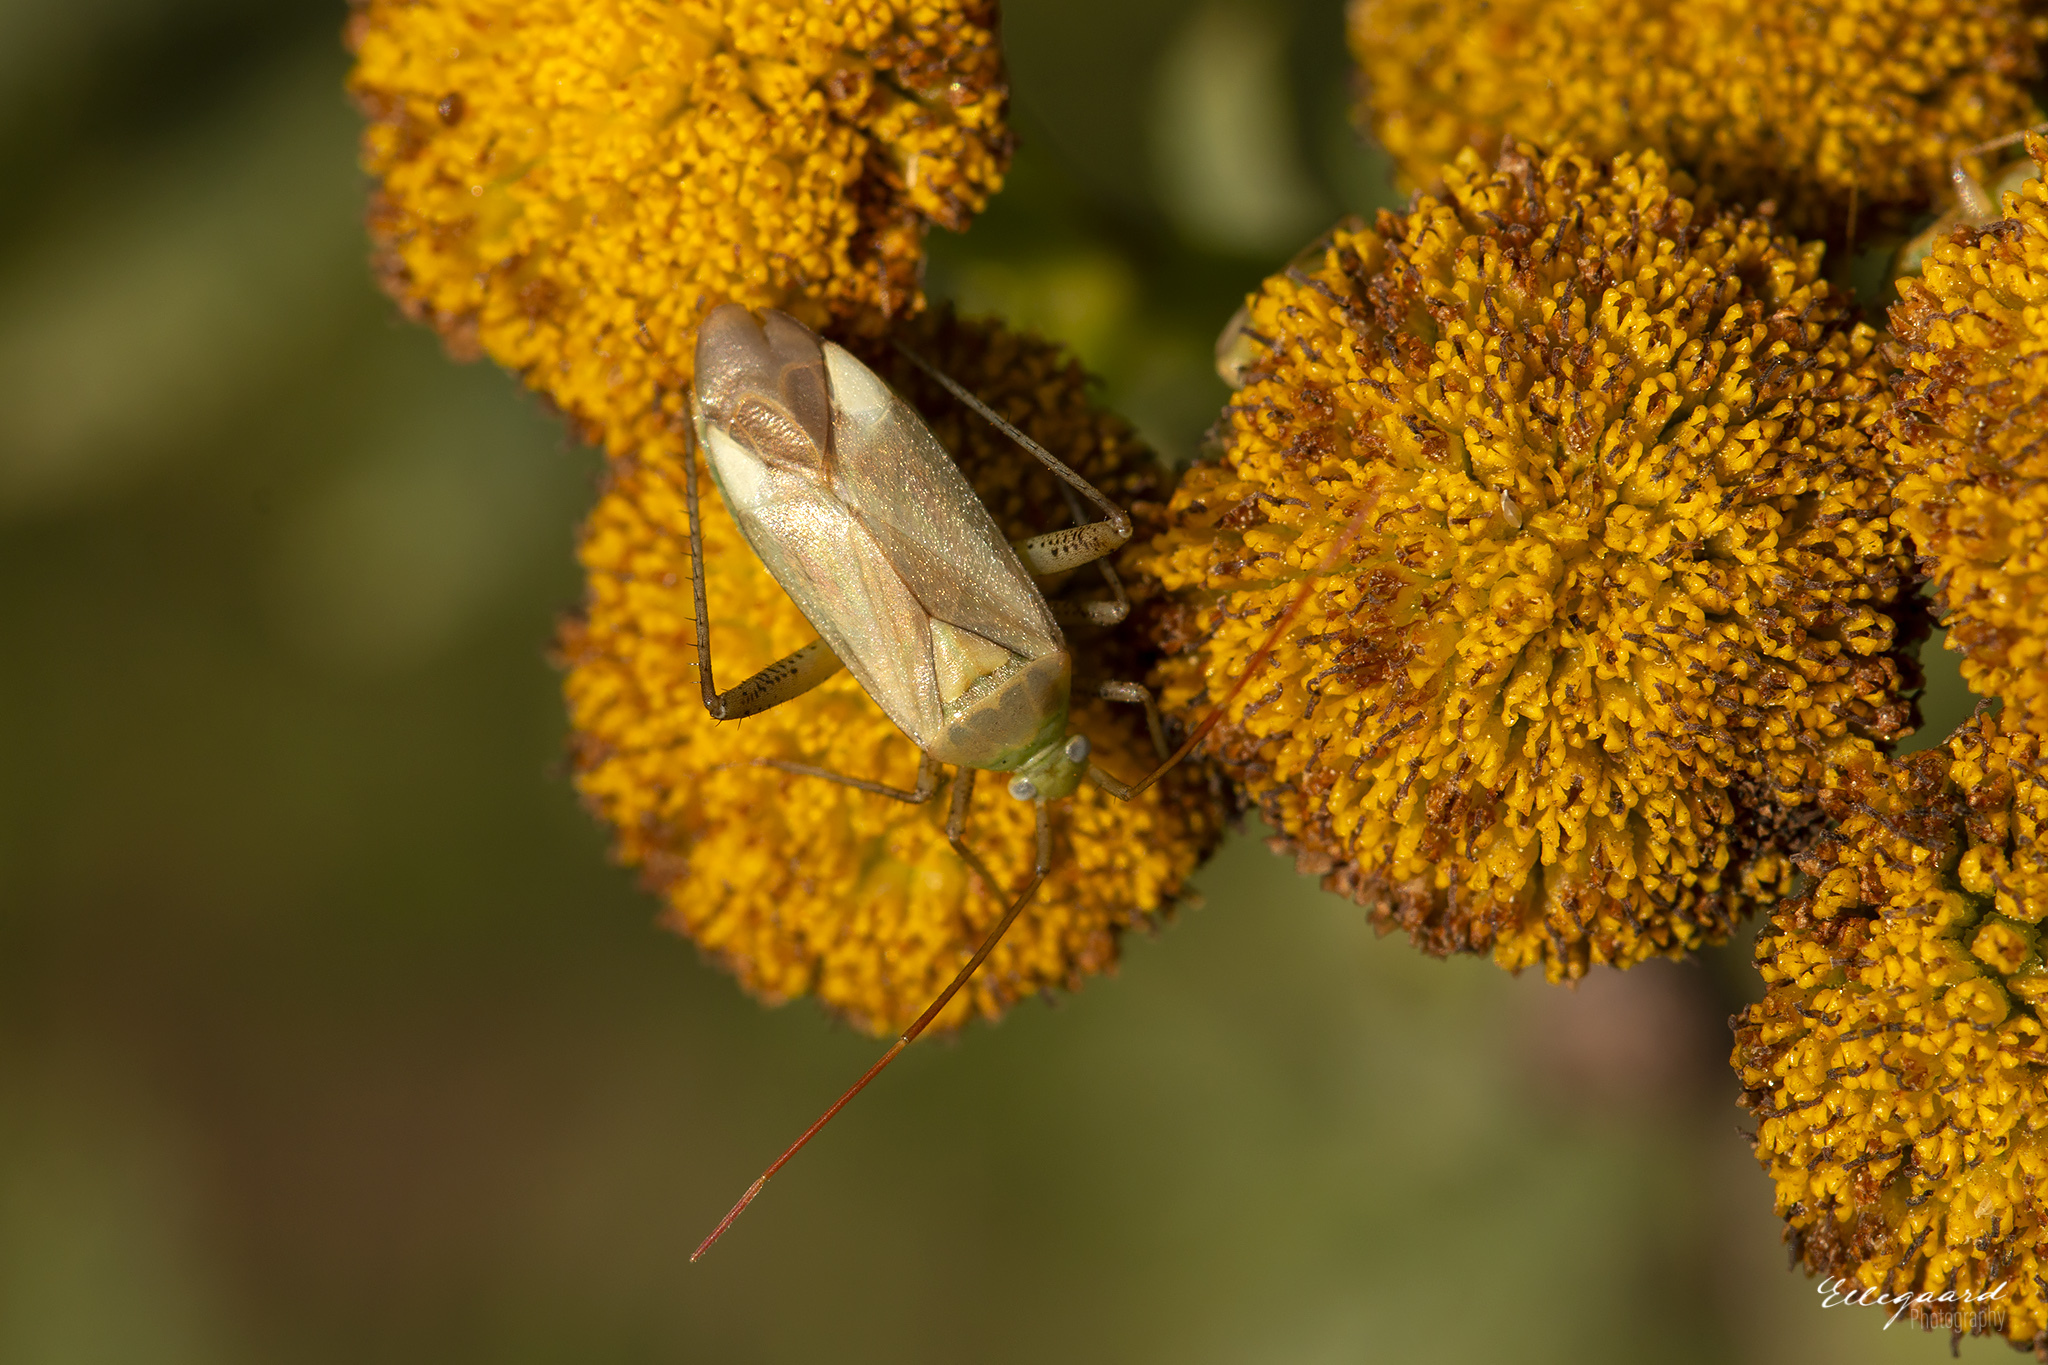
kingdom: Animalia
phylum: Arthropoda
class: Insecta
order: Hemiptera
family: Miridae
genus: Adelphocoris
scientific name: Adelphocoris lineolatus
